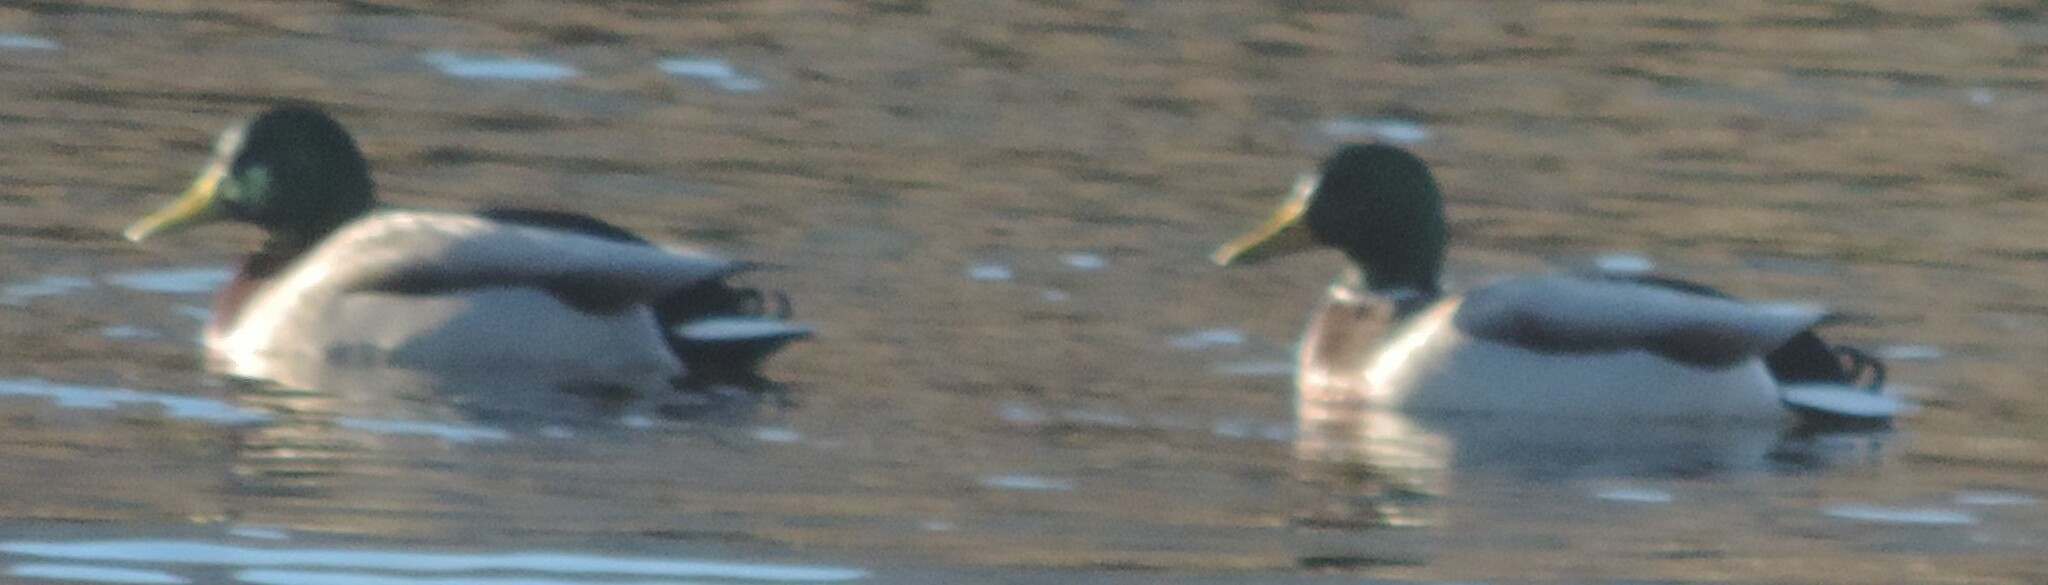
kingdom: Animalia
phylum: Chordata
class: Aves
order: Anseriformes
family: Anatidae
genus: Anas
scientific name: Anas platyrhynchos
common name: Mallard
